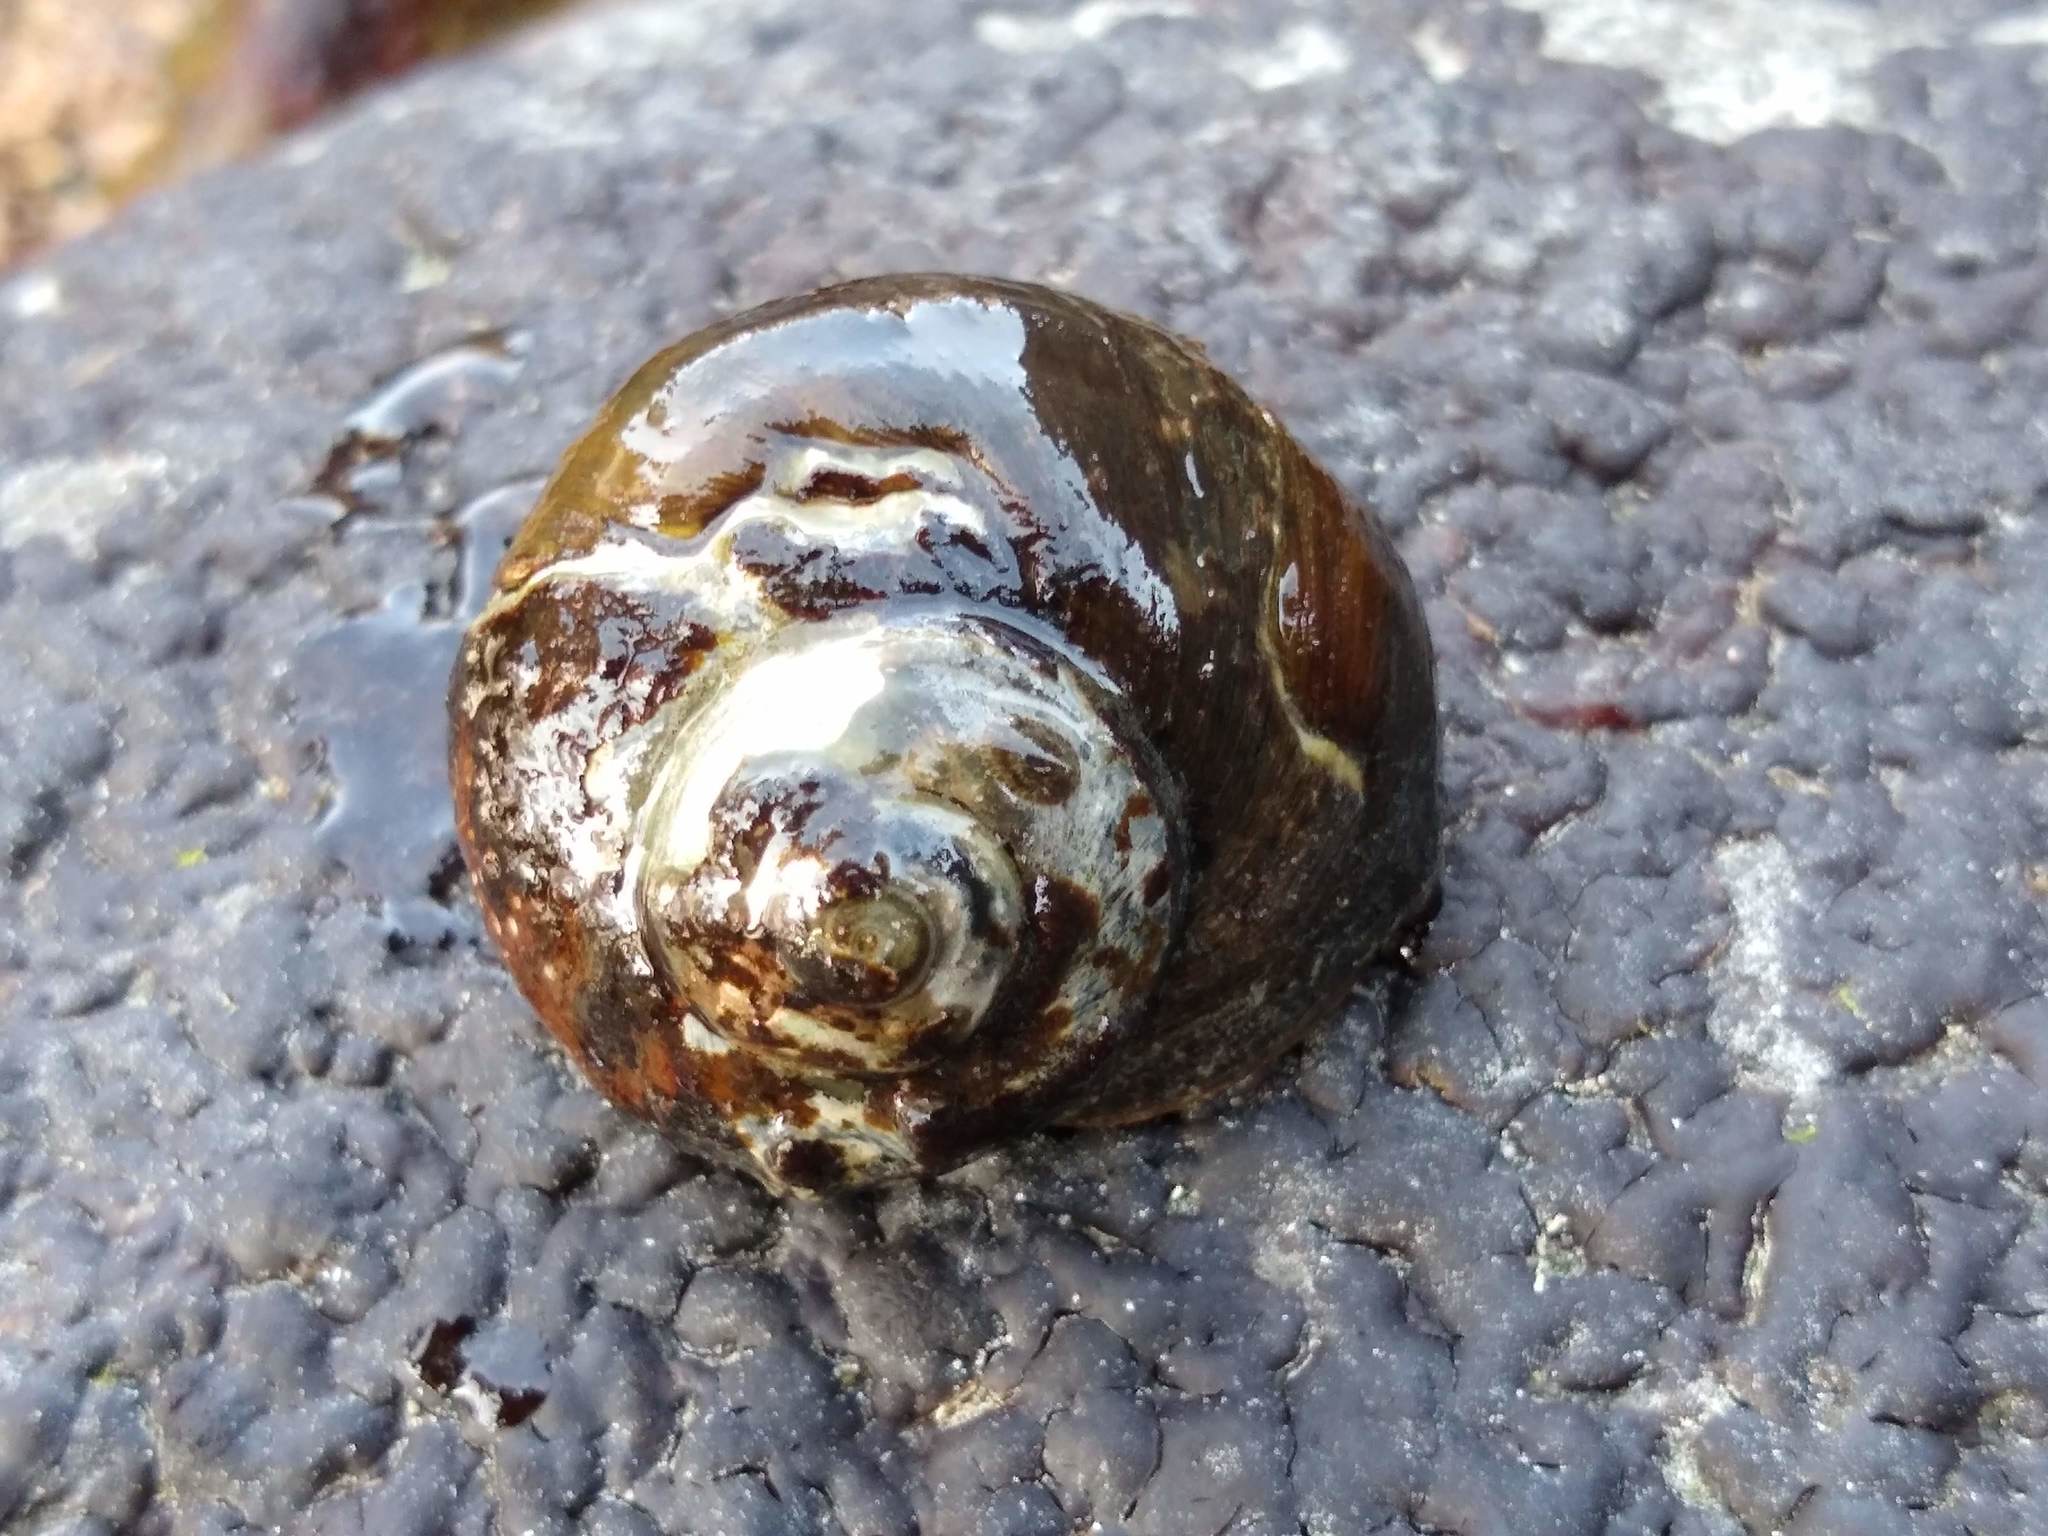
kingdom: Animalia
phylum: Mollusca
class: Gastropoda
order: Trochida
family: Turbinidae
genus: Lunella
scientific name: Lunella smaragda
